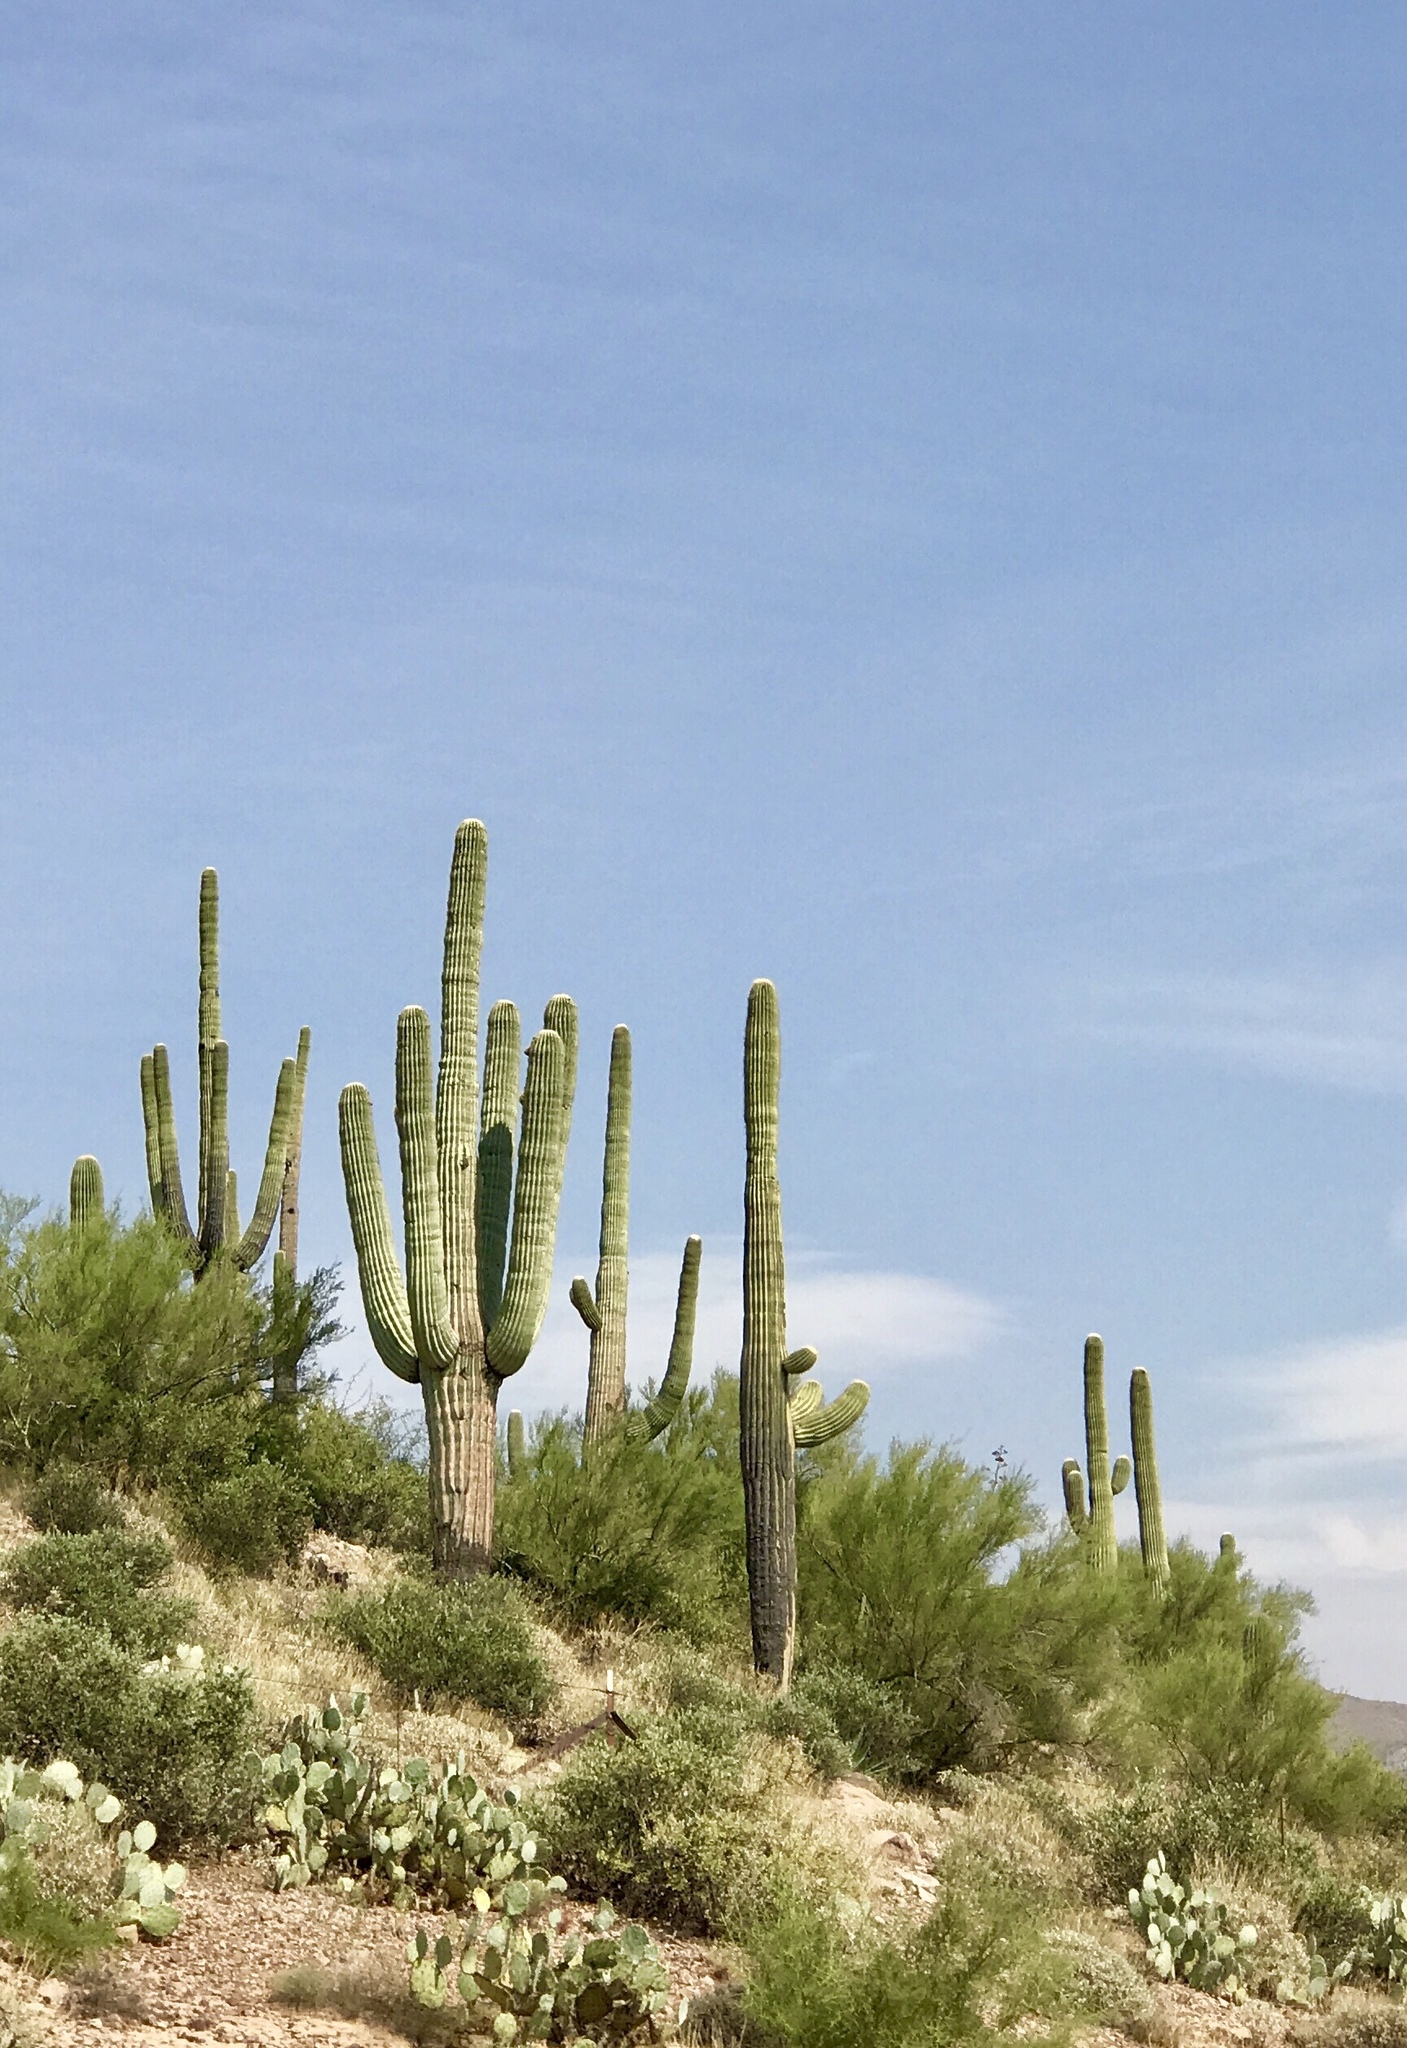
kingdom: Plantae
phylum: Tracheophyta
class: Magnoliopsida
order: Caryophyllales
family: Cactaceae
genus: Carnegiea
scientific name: Carnegiea gigantea
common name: Saguaro
